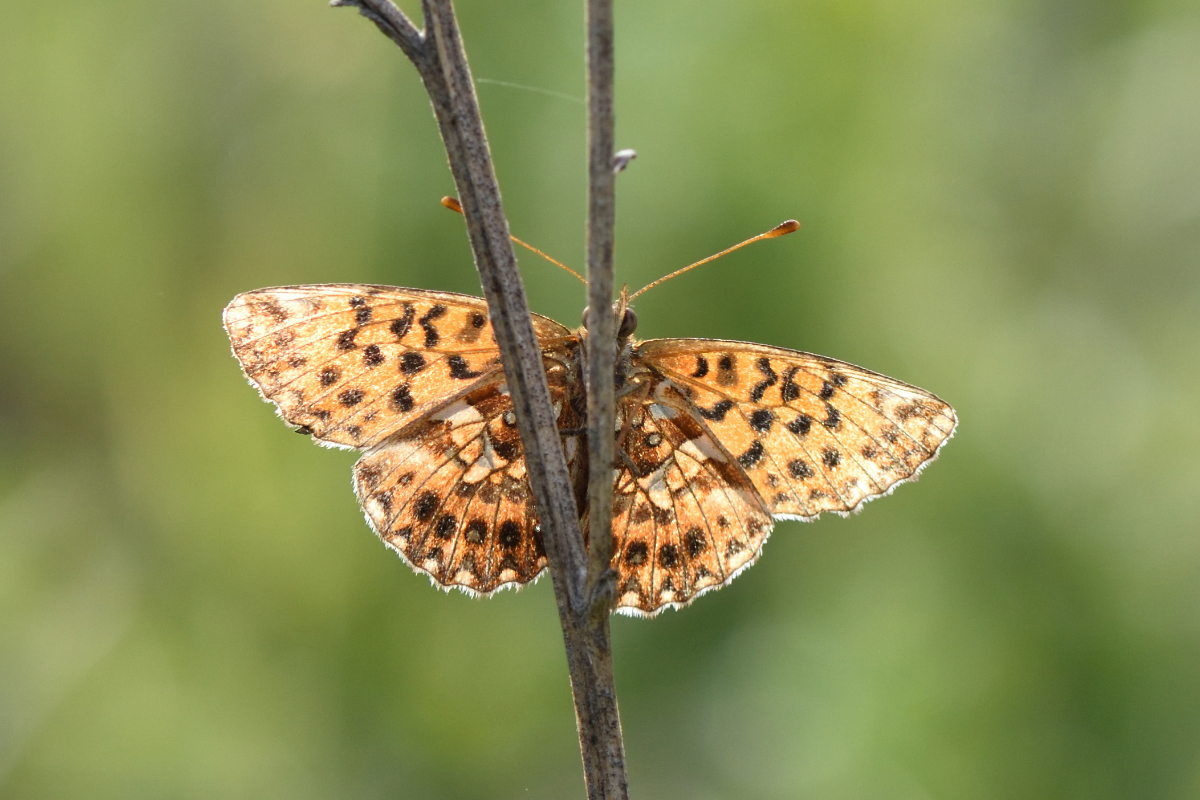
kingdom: Animalia
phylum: Arthropoda
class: Insecta
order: Lepidoptera
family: Nymphalidae
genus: Boloria
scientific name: Boloria dia
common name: Weaver's fritillary
